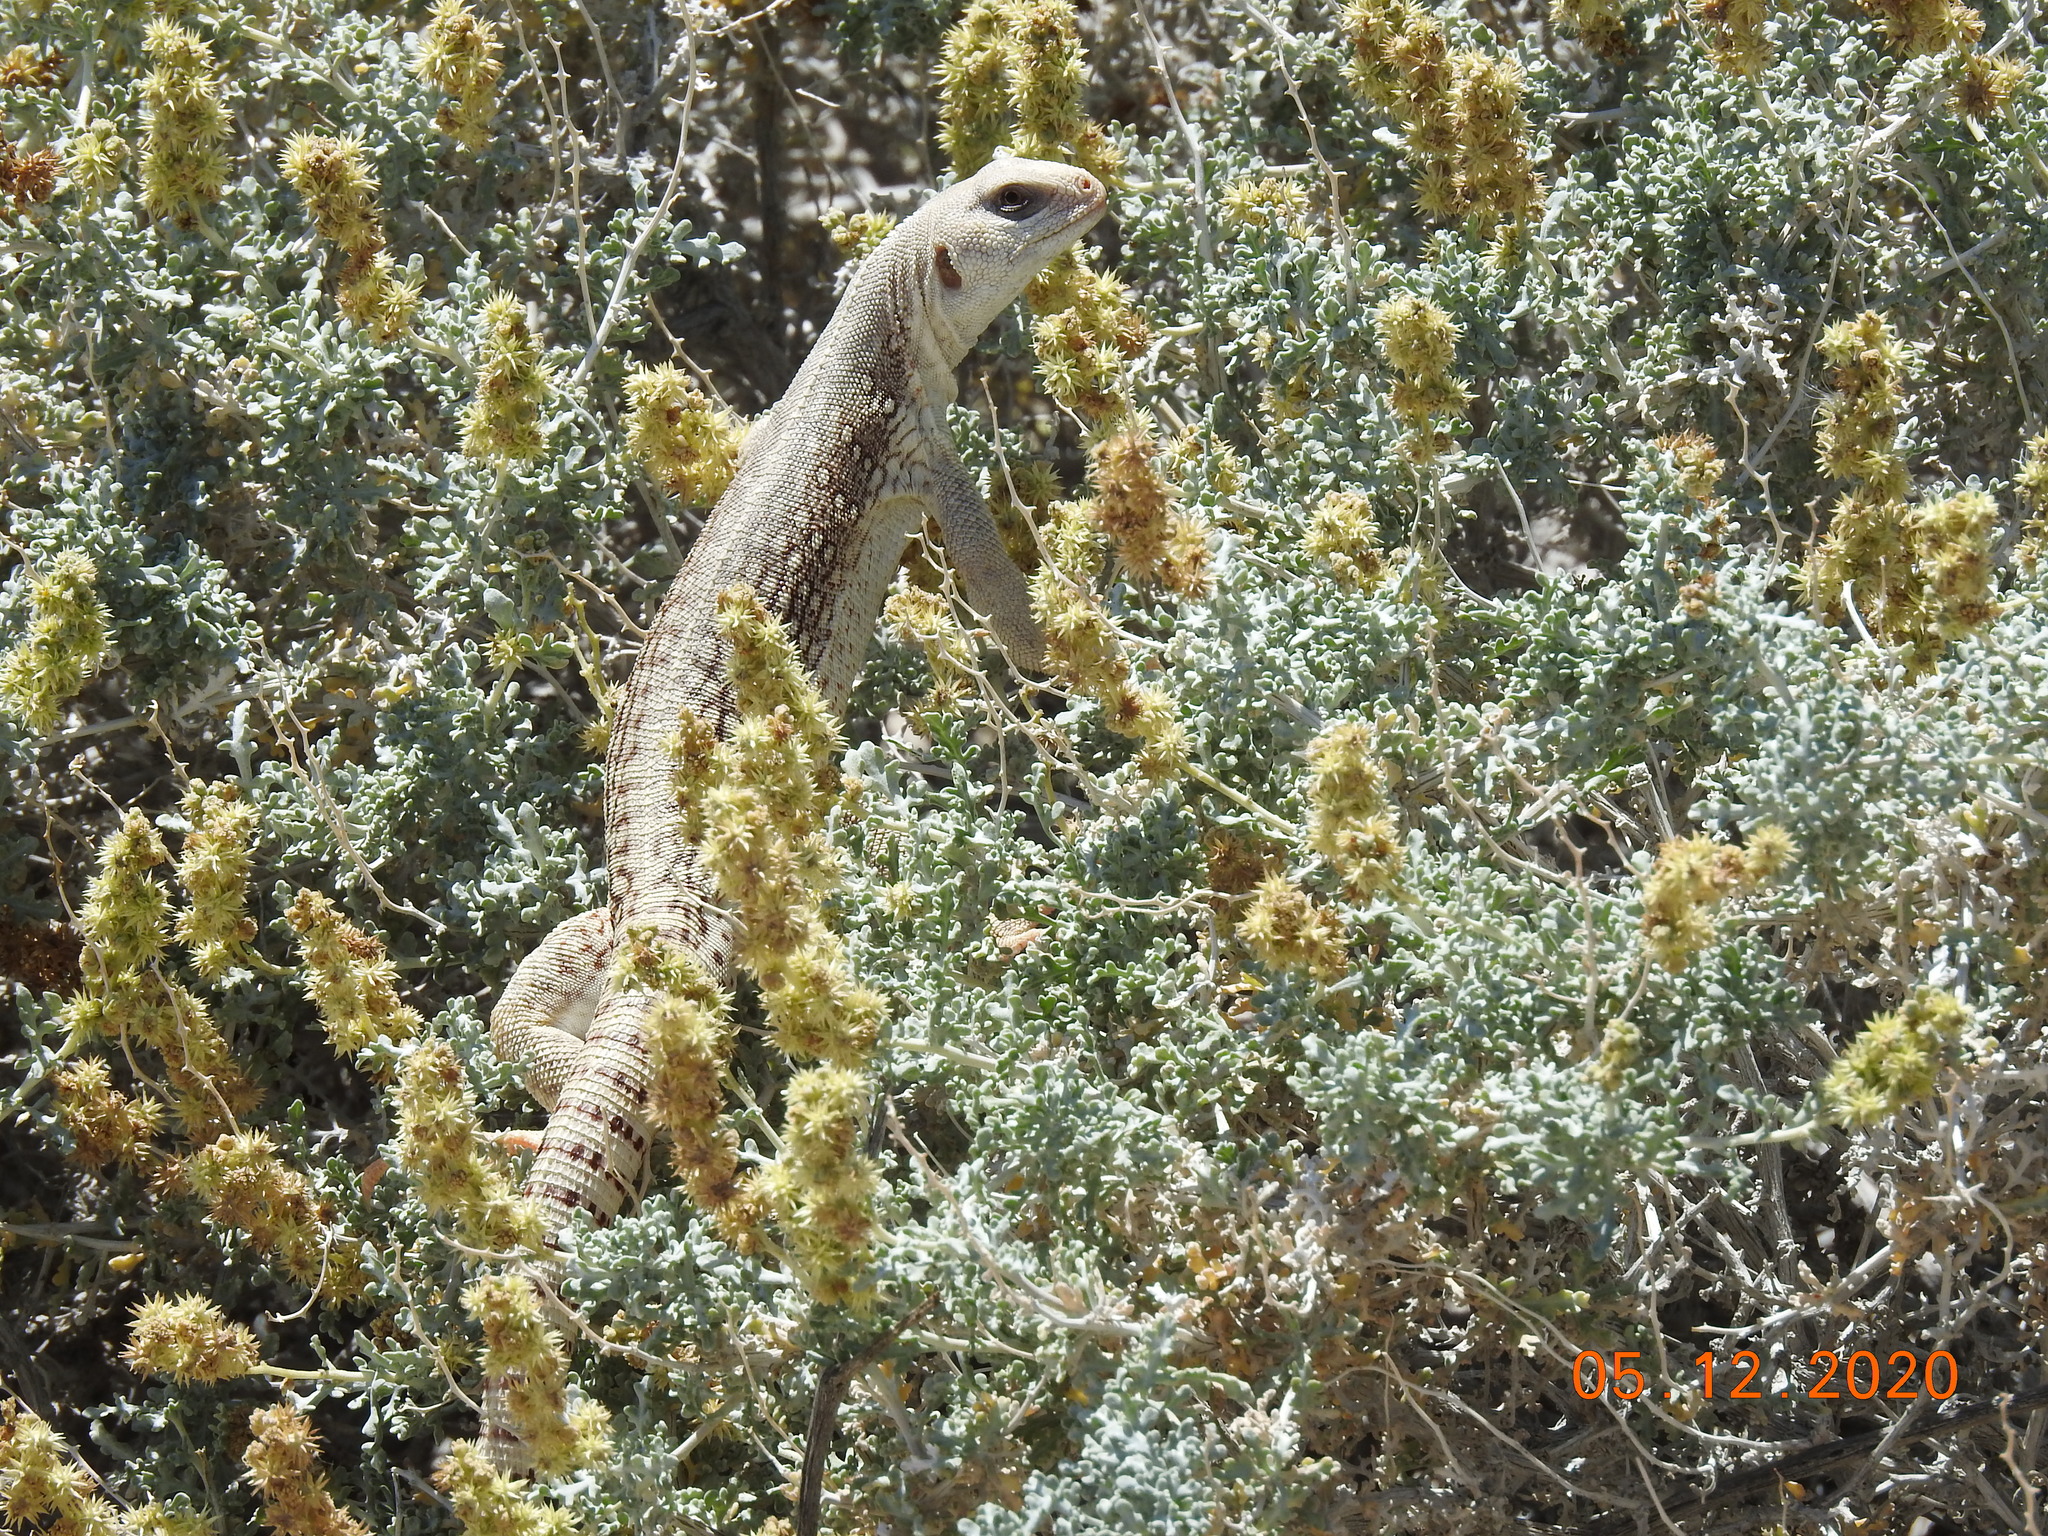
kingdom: Animalia
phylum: Chordata
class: Squamata
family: Iguanidae
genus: Dipsosaurus
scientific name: Dipsosaurus dorsalis
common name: Desert iguana
